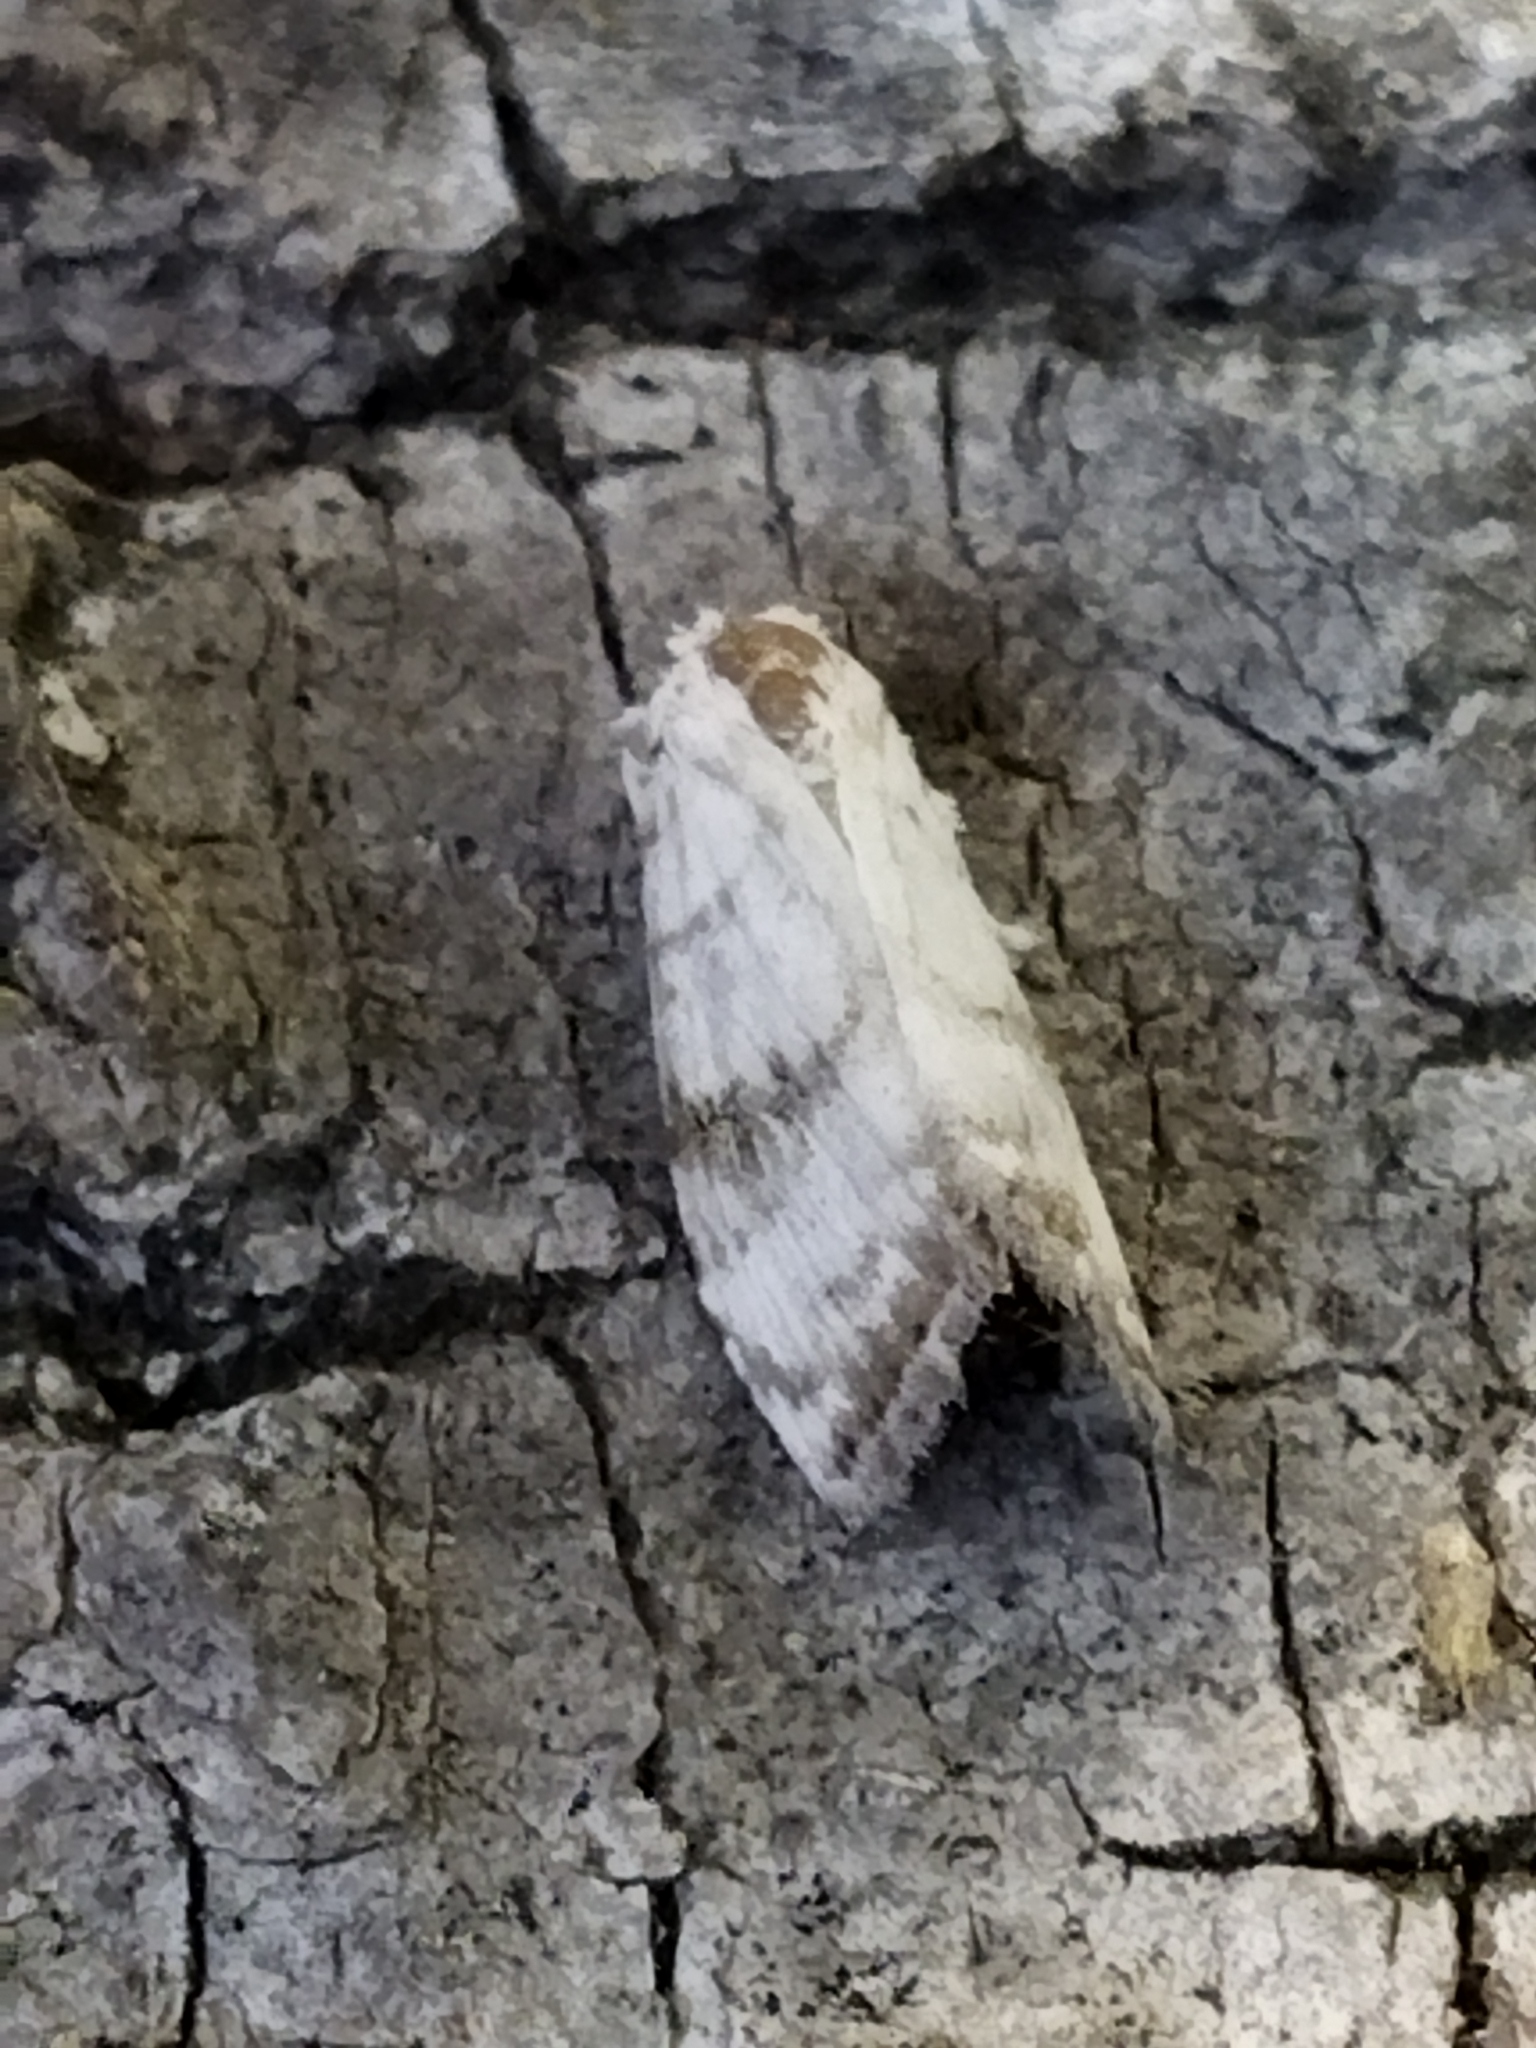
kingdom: Animalia
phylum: Arthropoda
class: Insecta
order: Lepidoptera
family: Nolidae
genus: Meganola
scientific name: Meganola albula
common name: Kent black arches
